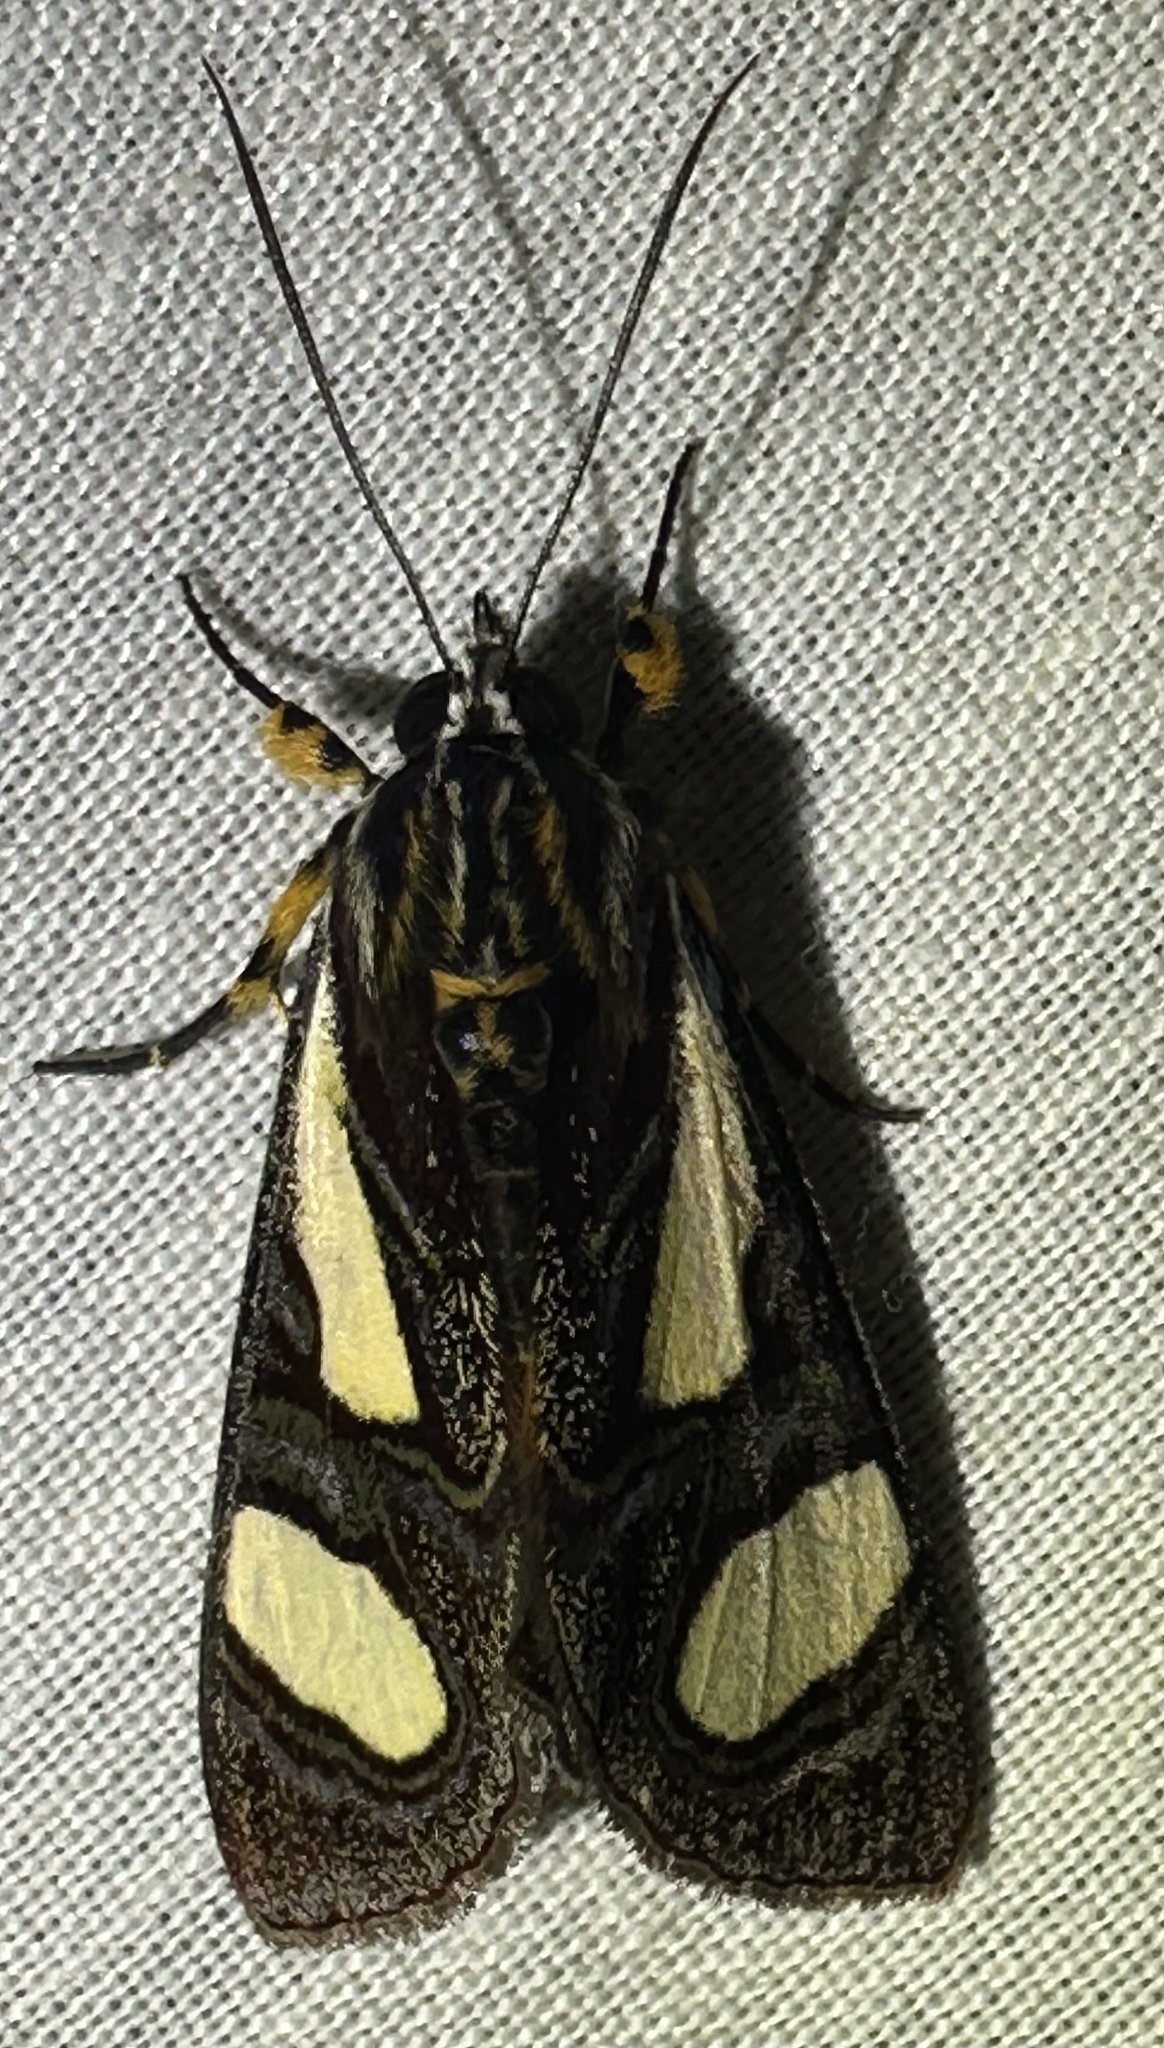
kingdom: Animalia
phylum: Arthropoda
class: Insecta
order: Lepidoptera
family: Noctuidae
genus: Agoma
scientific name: Agoma trimenii
